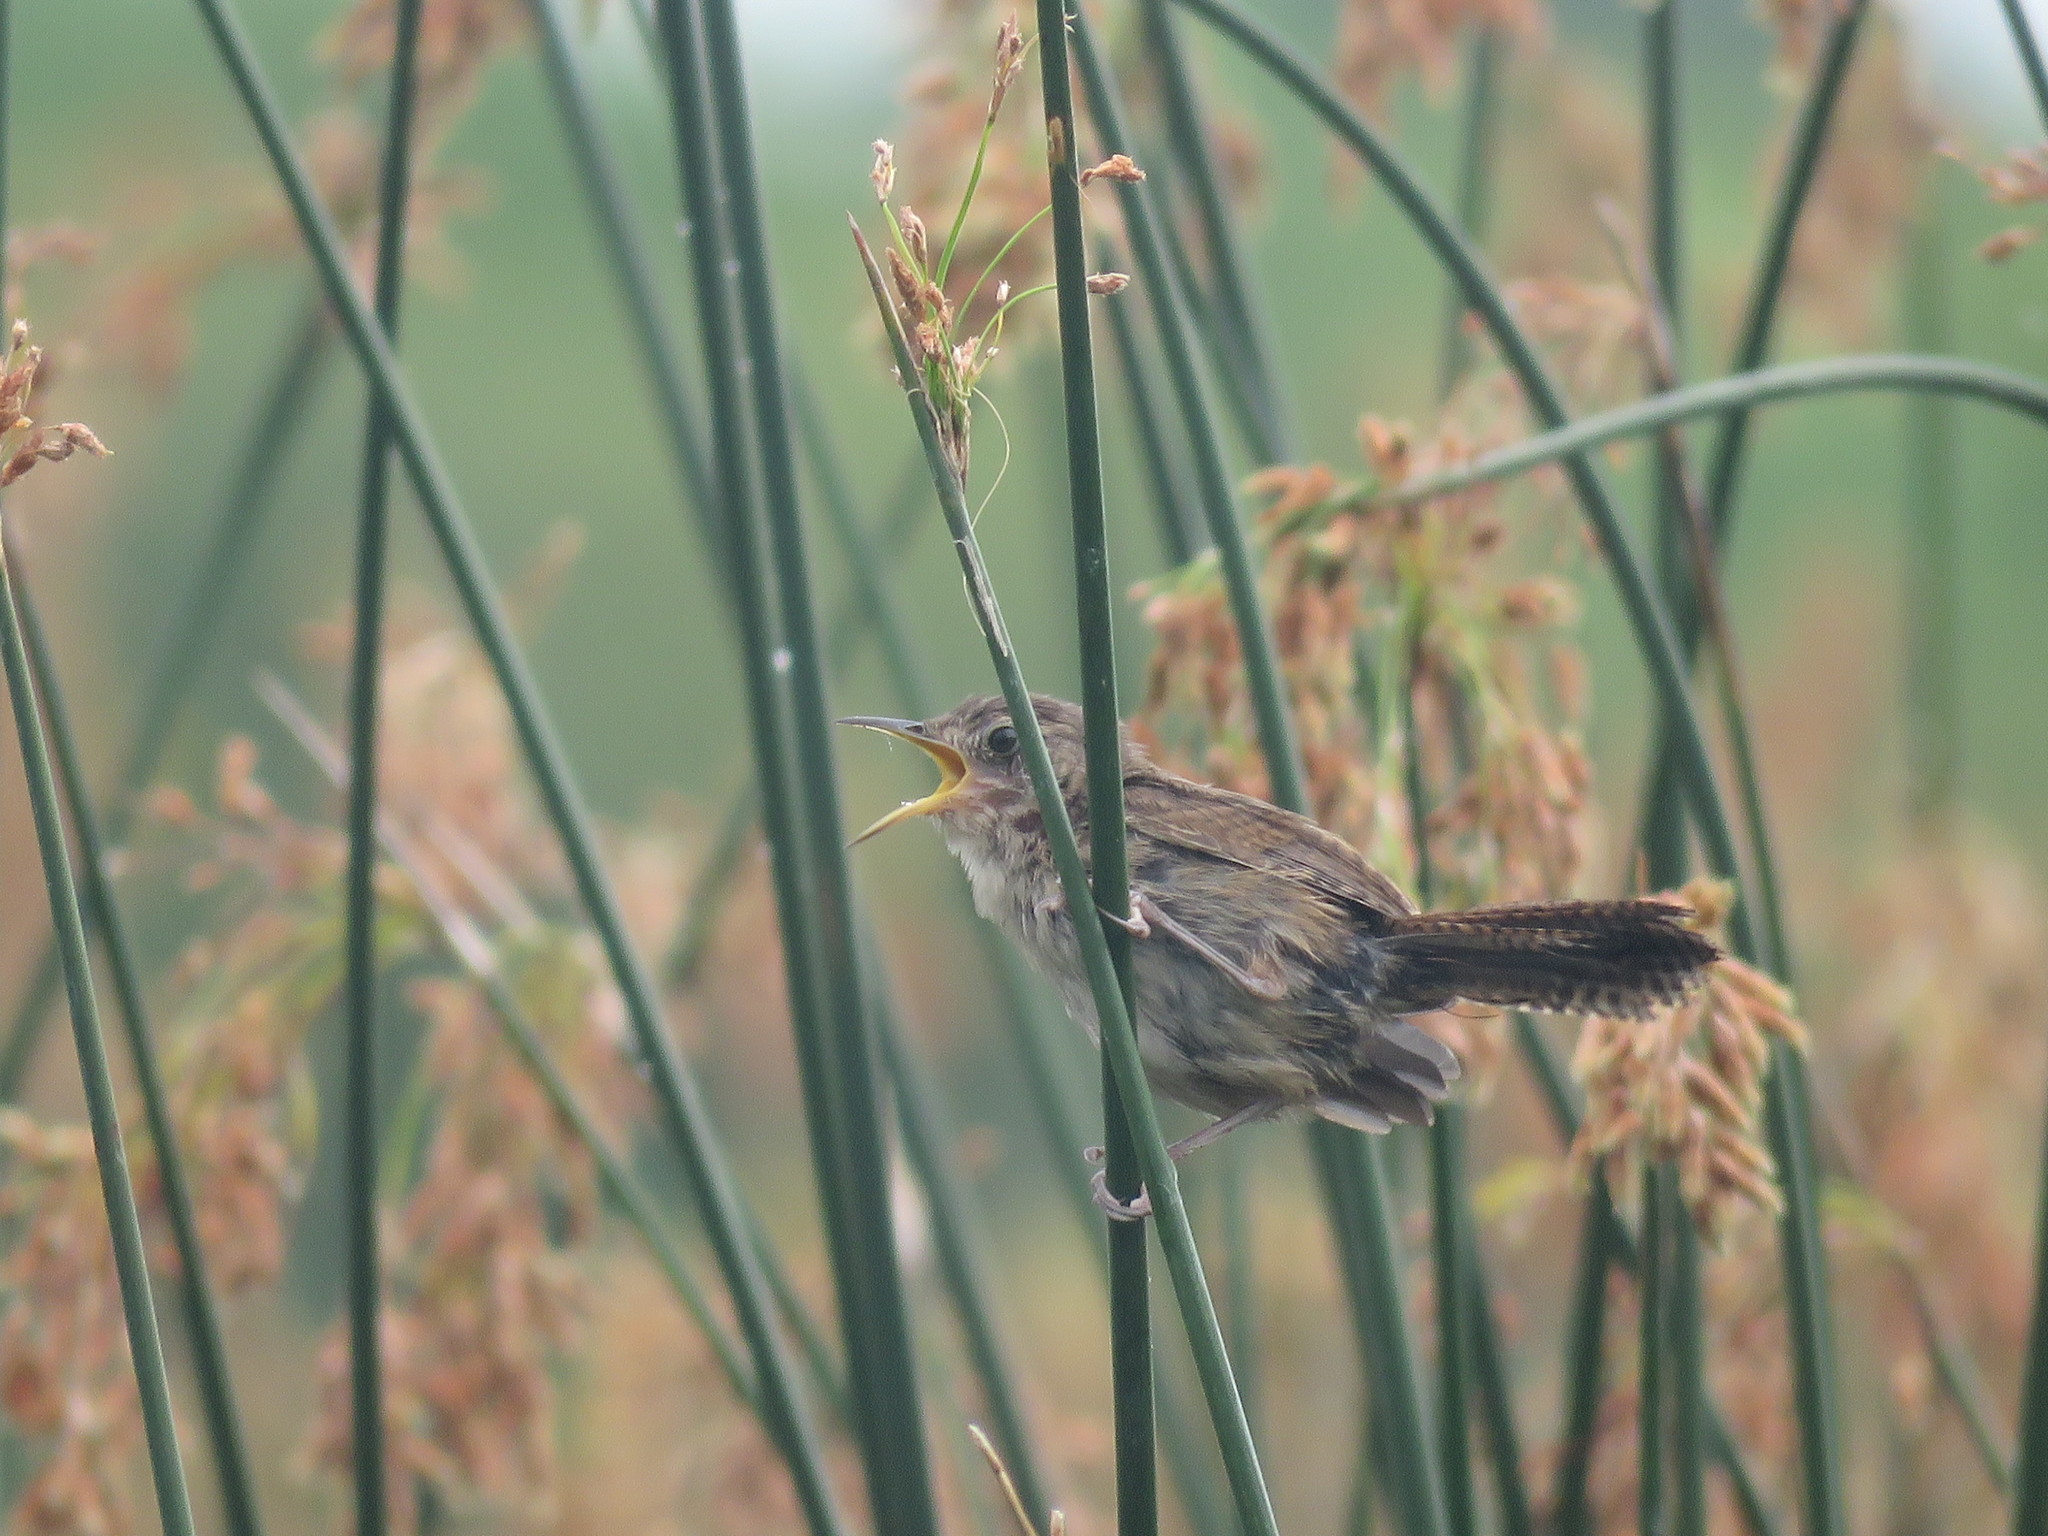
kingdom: Animalia
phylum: Chordata
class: Aves
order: Passeriformes
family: Troglodytidae
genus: Troglodytes
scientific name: Troglodytes aedon
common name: House wren
